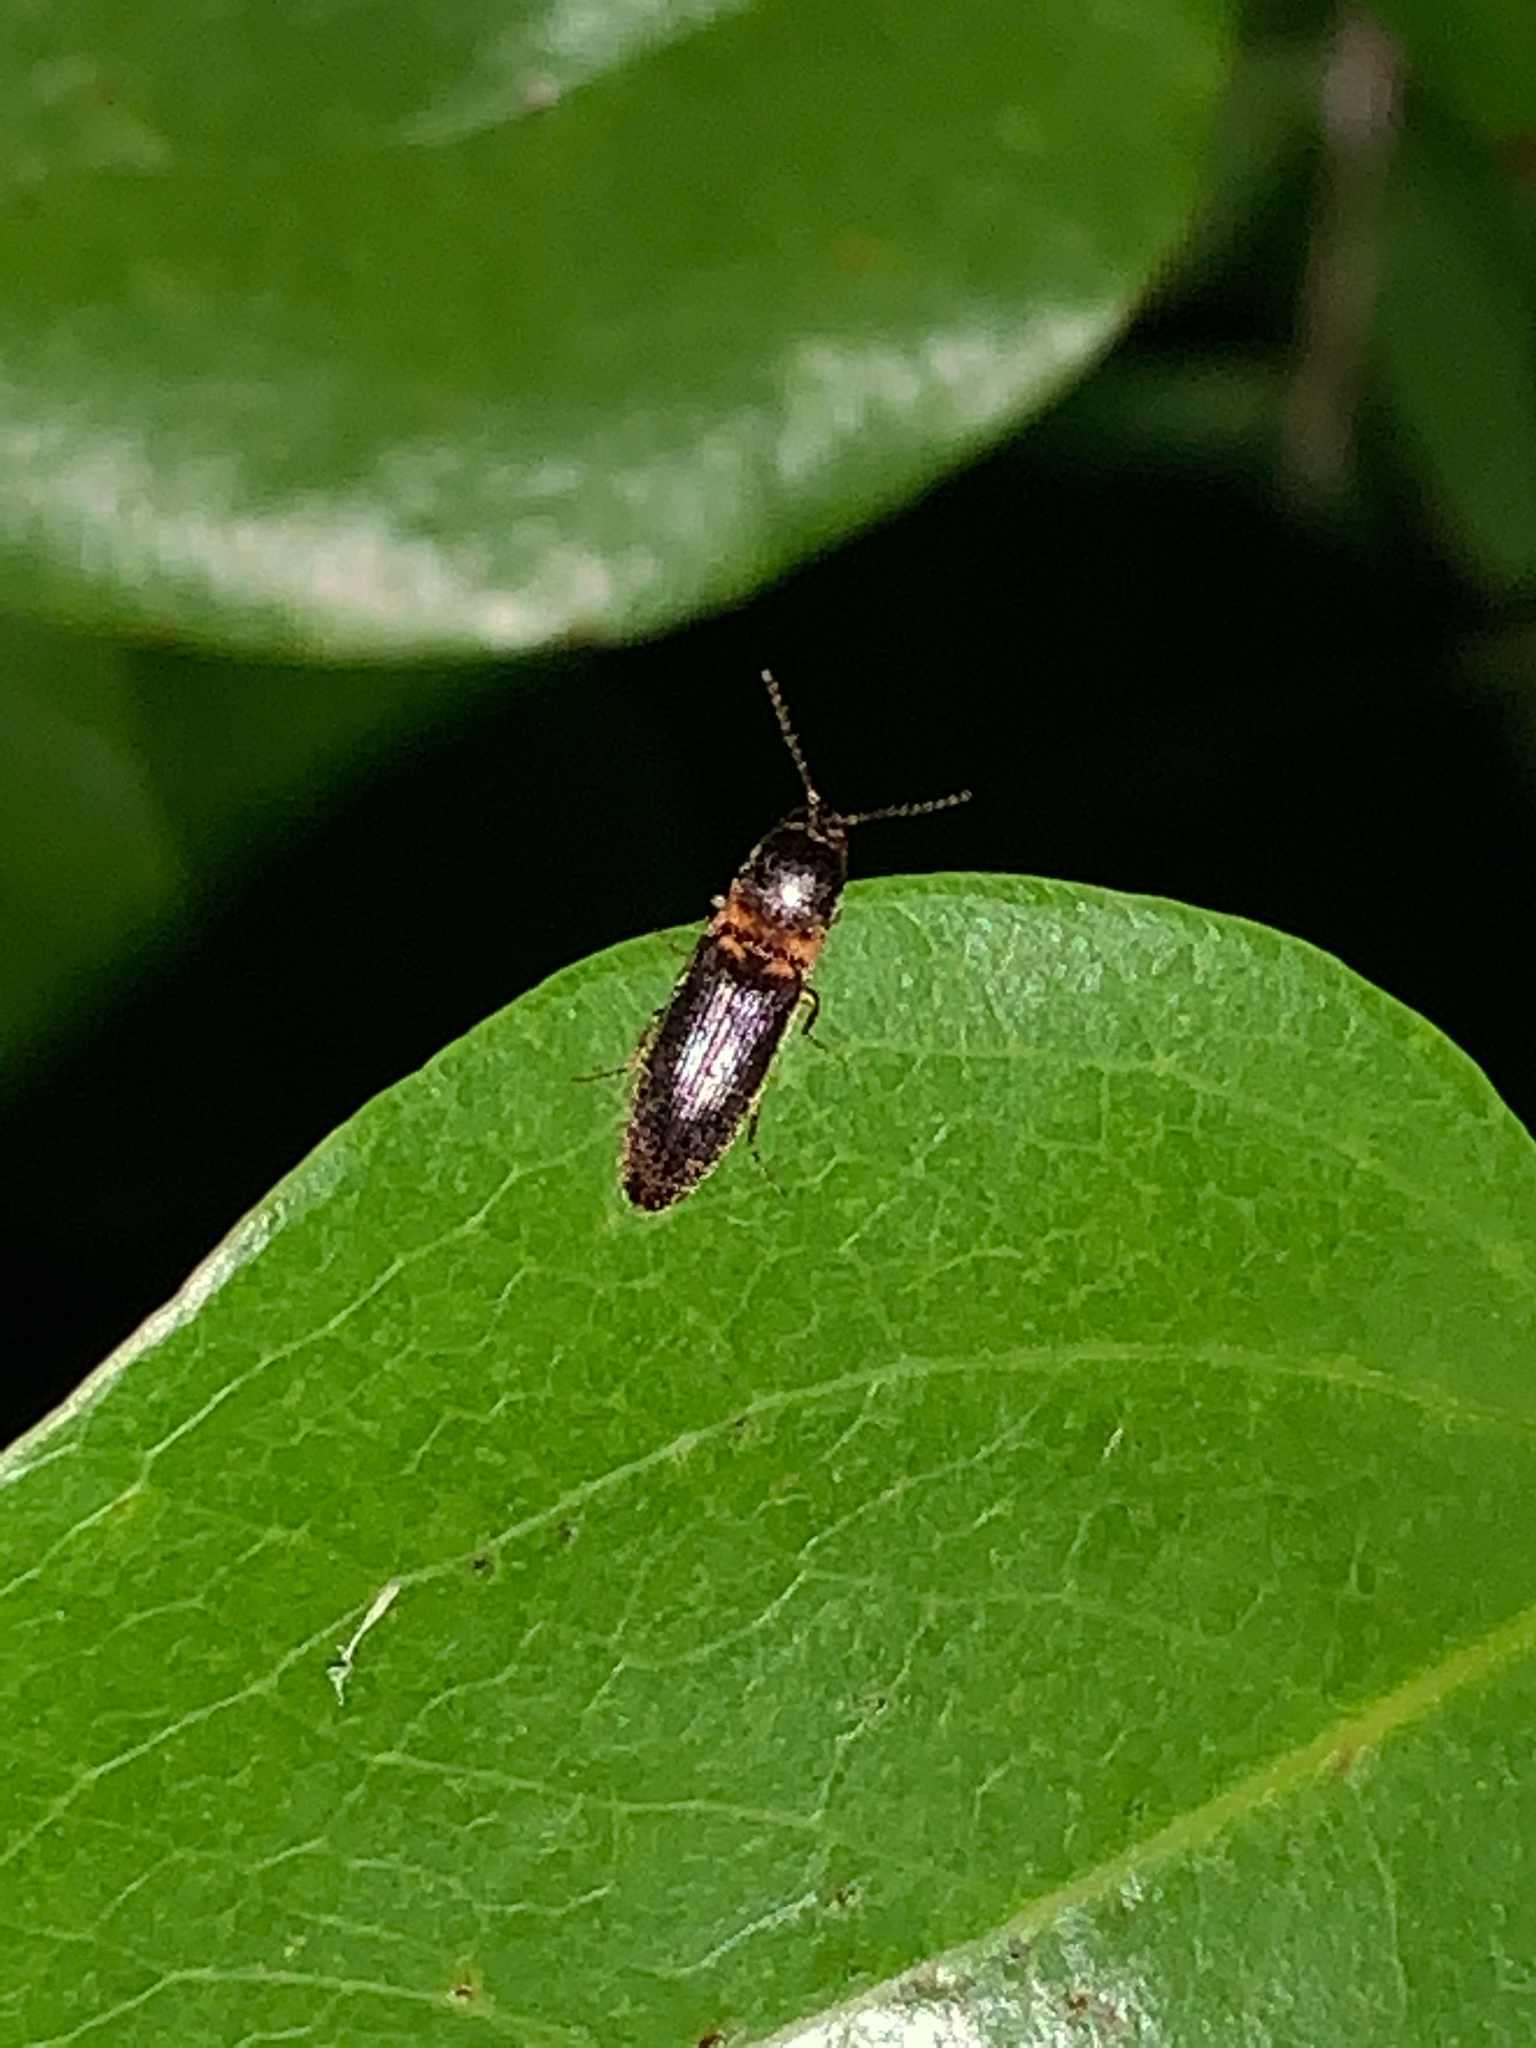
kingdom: Animalia
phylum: Arthropoda
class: Insecta
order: Coleoptera
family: Elateridae
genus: Megapenthes
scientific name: Megapenthes
